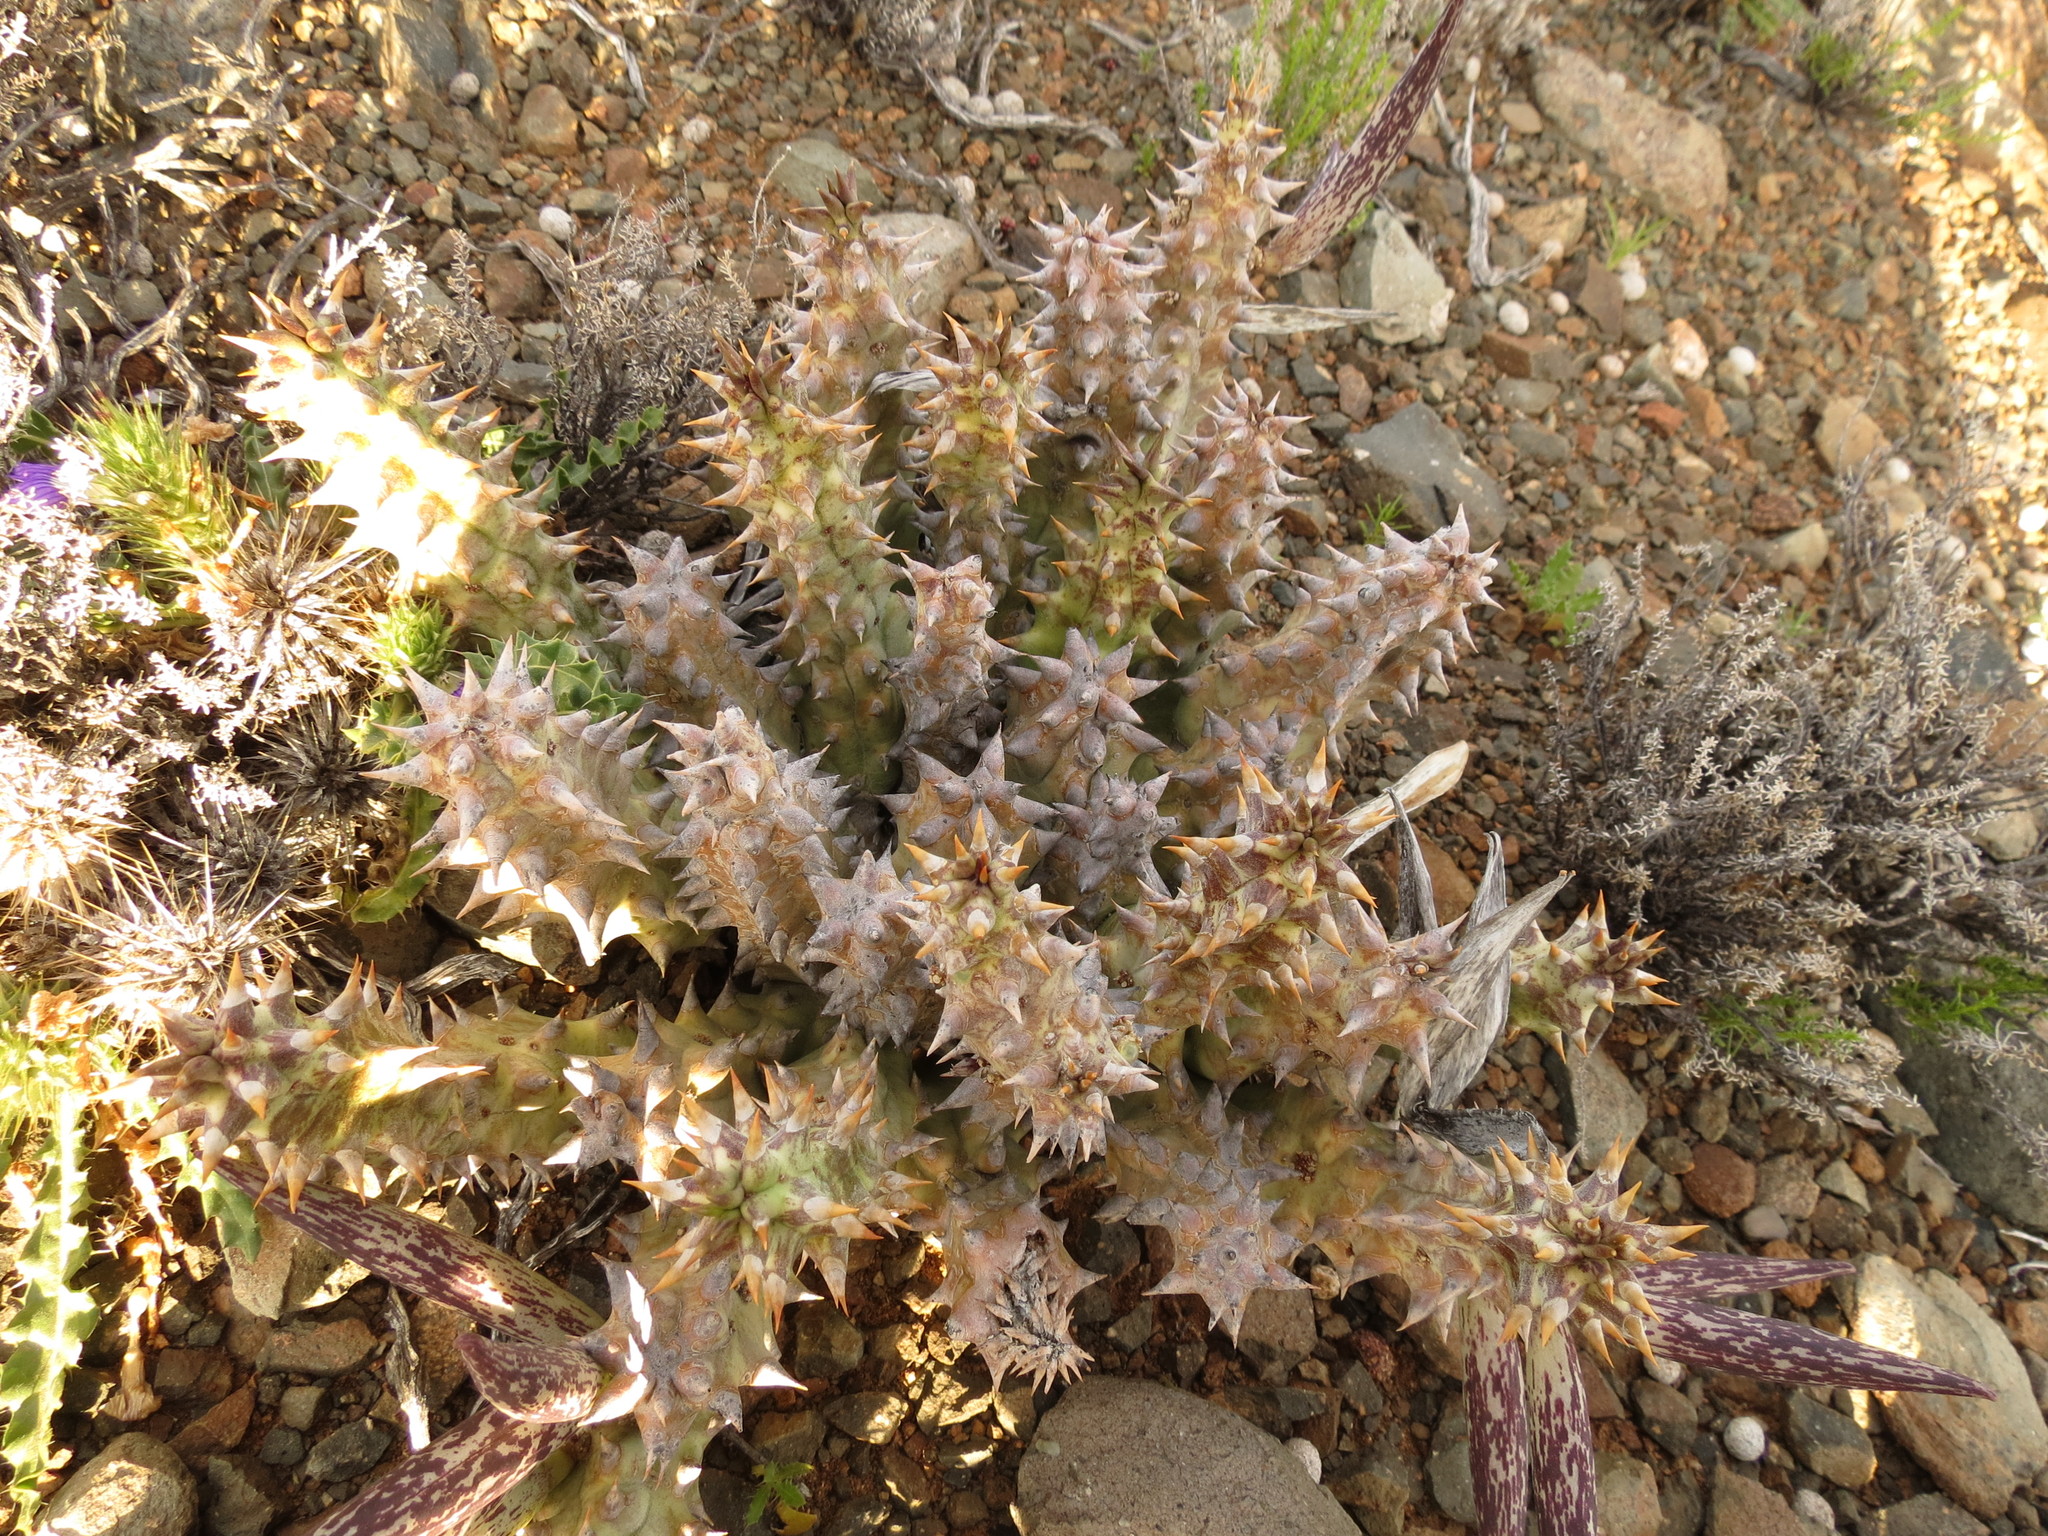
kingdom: Plantae
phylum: Tracheophyta
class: Magnoliopsida
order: Gentianales
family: Apocynaceae
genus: Ceropegia
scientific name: Ceropegia mammillaris
